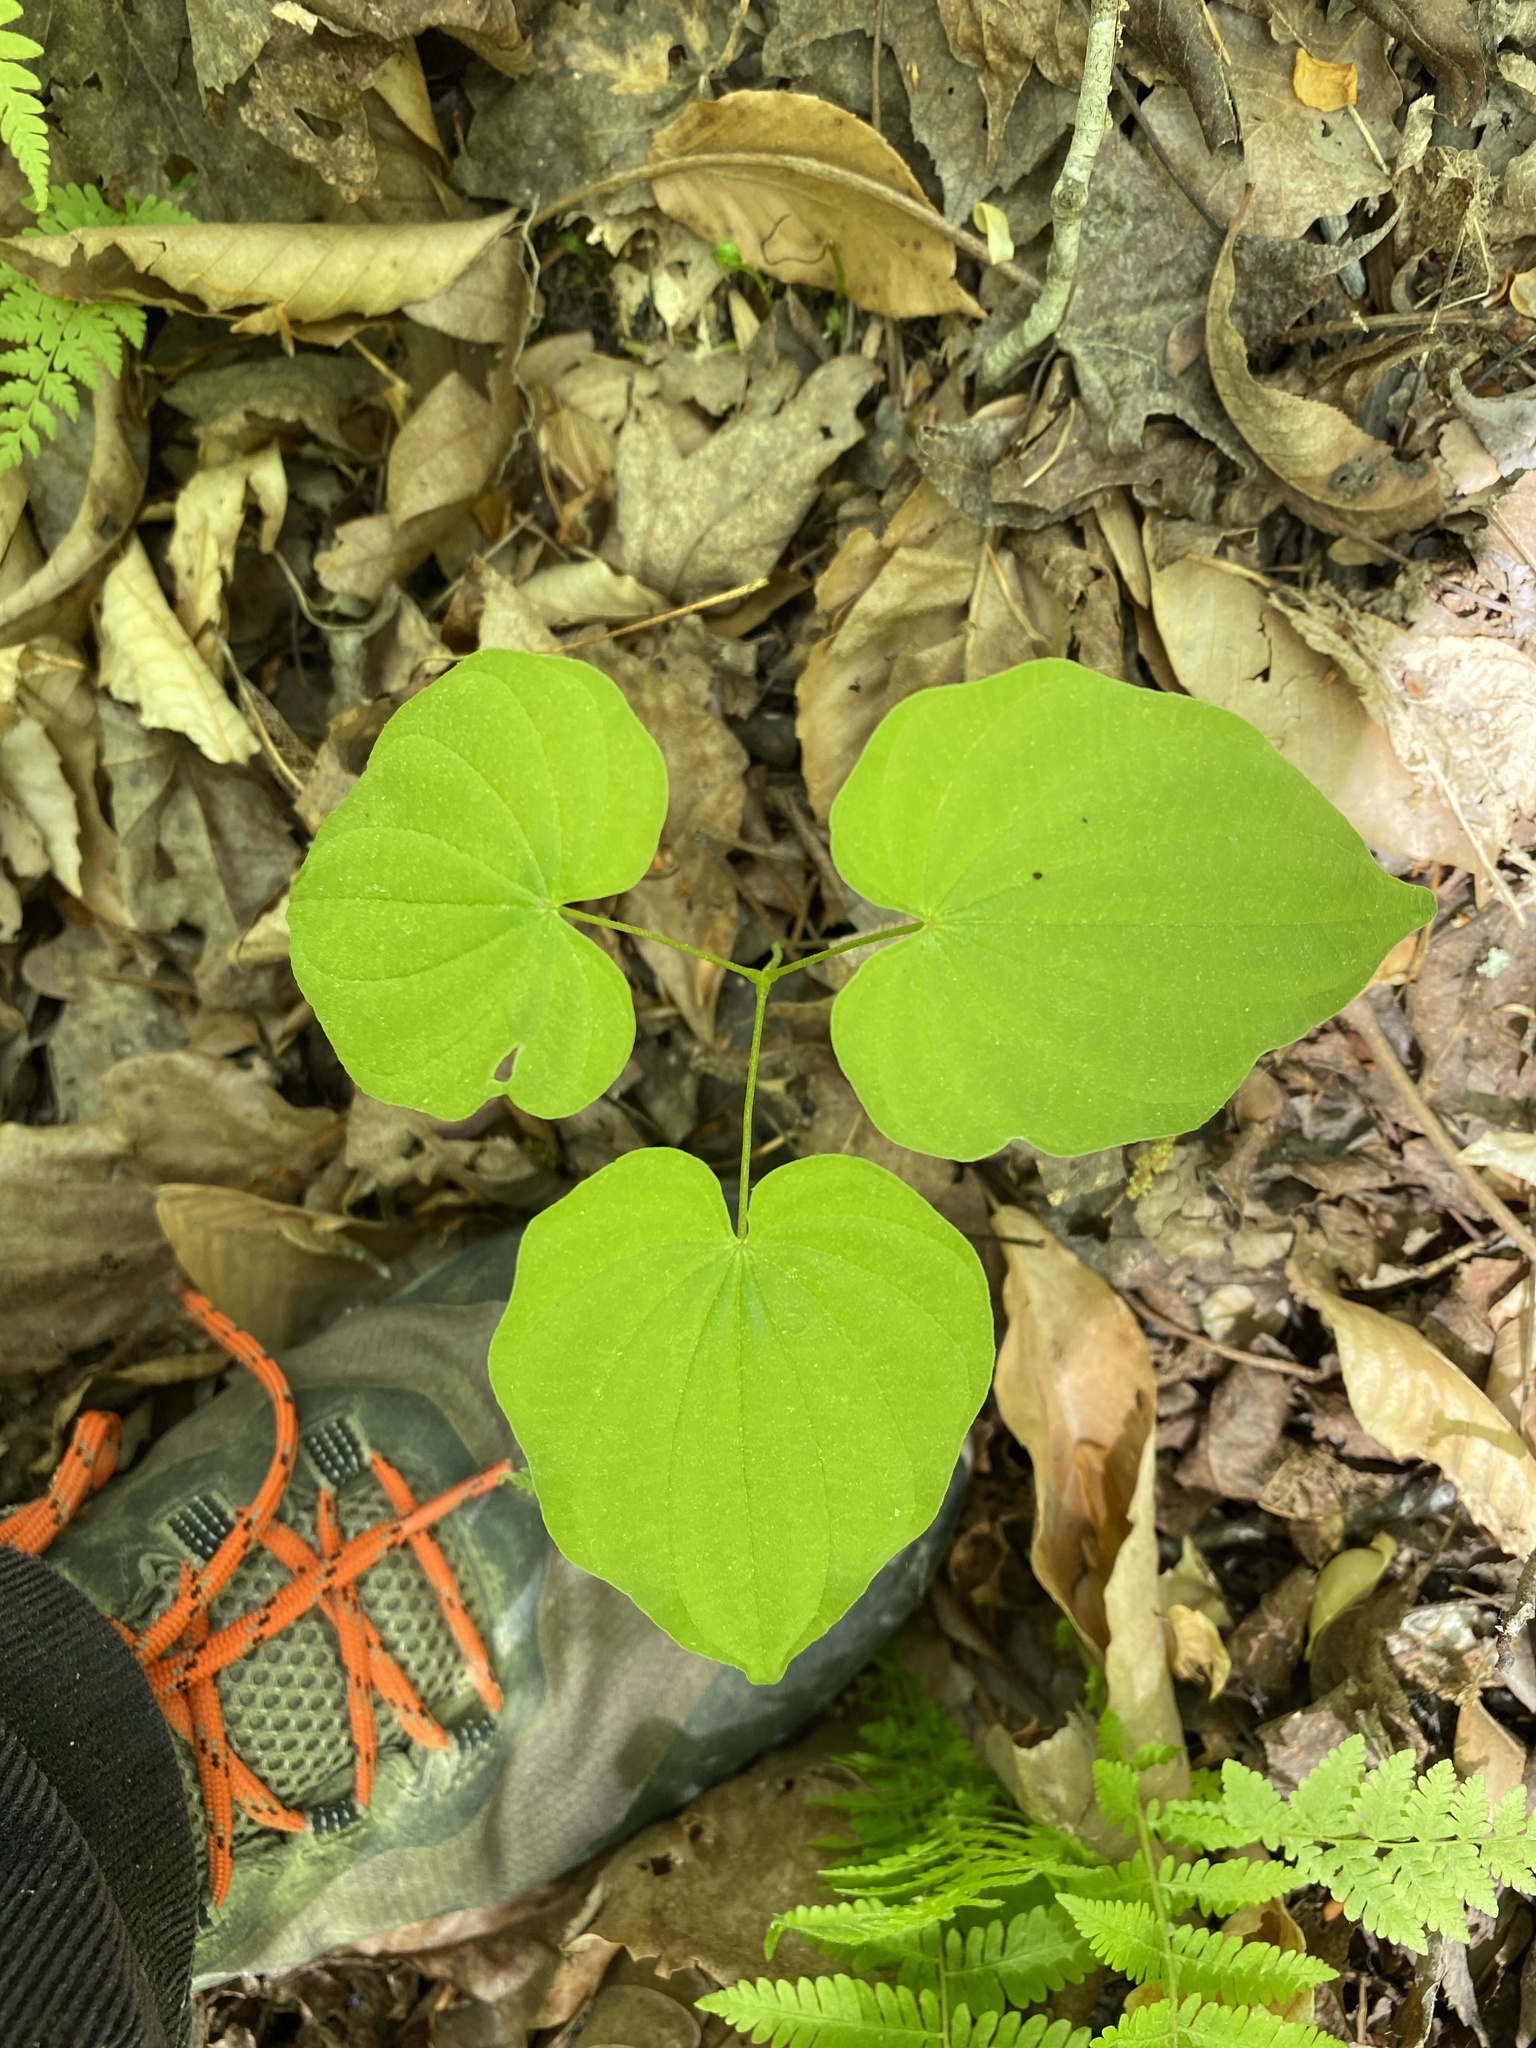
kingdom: Plantae
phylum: Tracheophyta
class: Liliopsida
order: Dioscoreales
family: Dioscoreaceae
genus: Dioscorea
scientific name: Dioscorea villosa
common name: Wild yam
